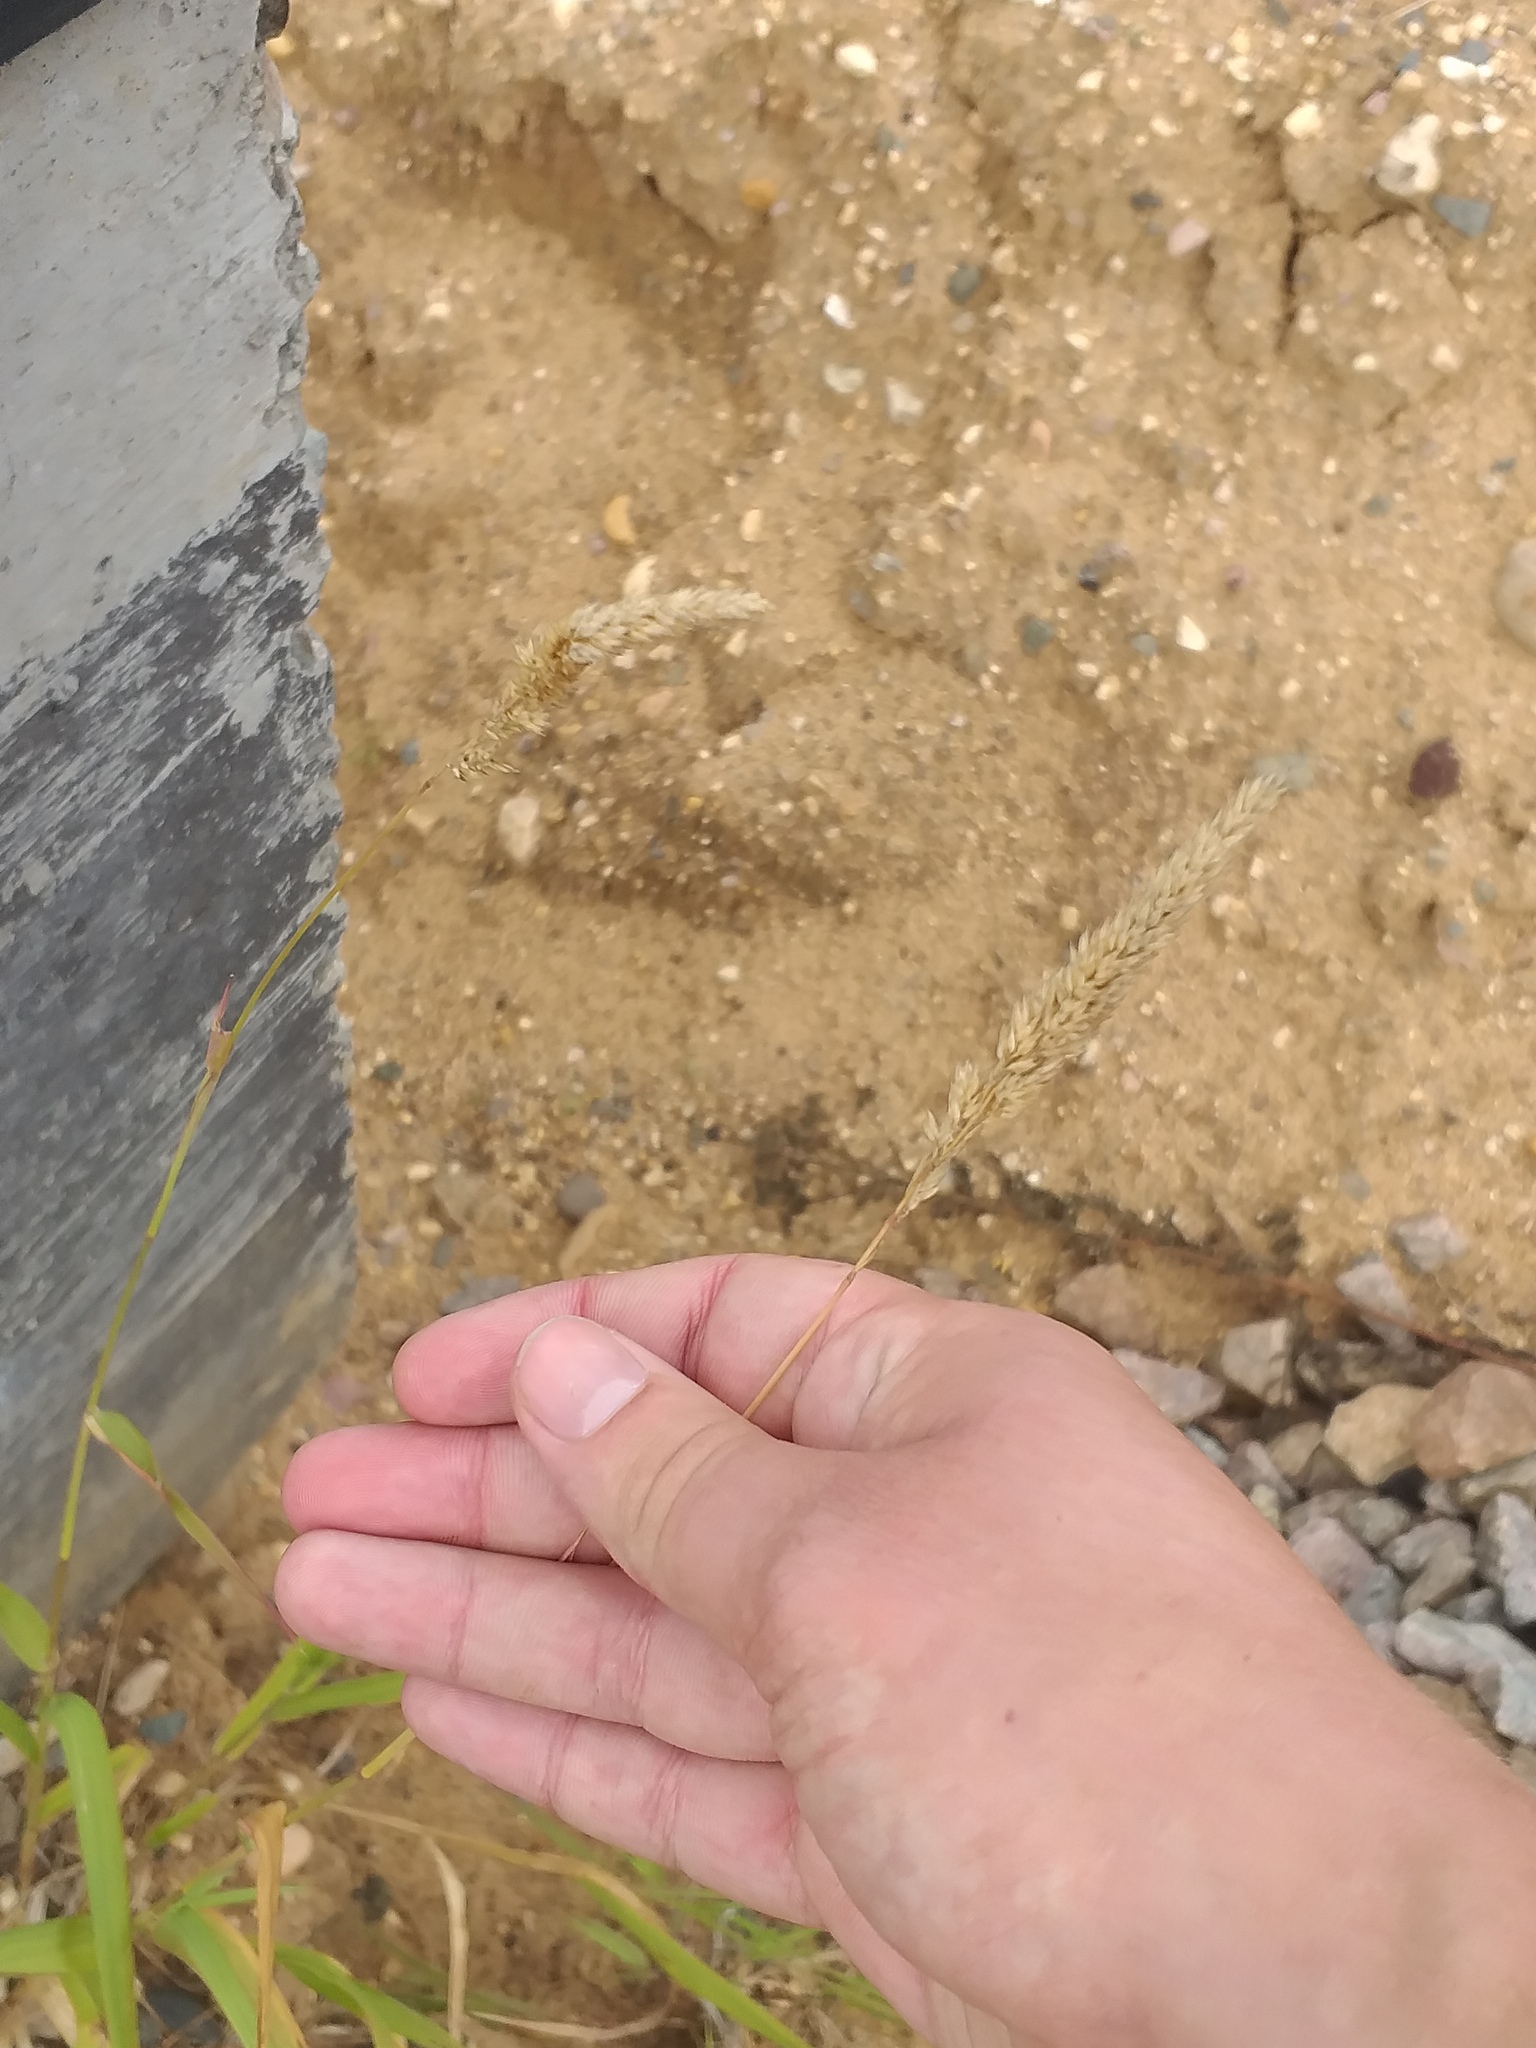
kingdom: Plantae
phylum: Tracheophyta
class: Liliopsida
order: Poales
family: Poaceae
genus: Dactylis
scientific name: Dactylis glomerata
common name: Orchardgrass
